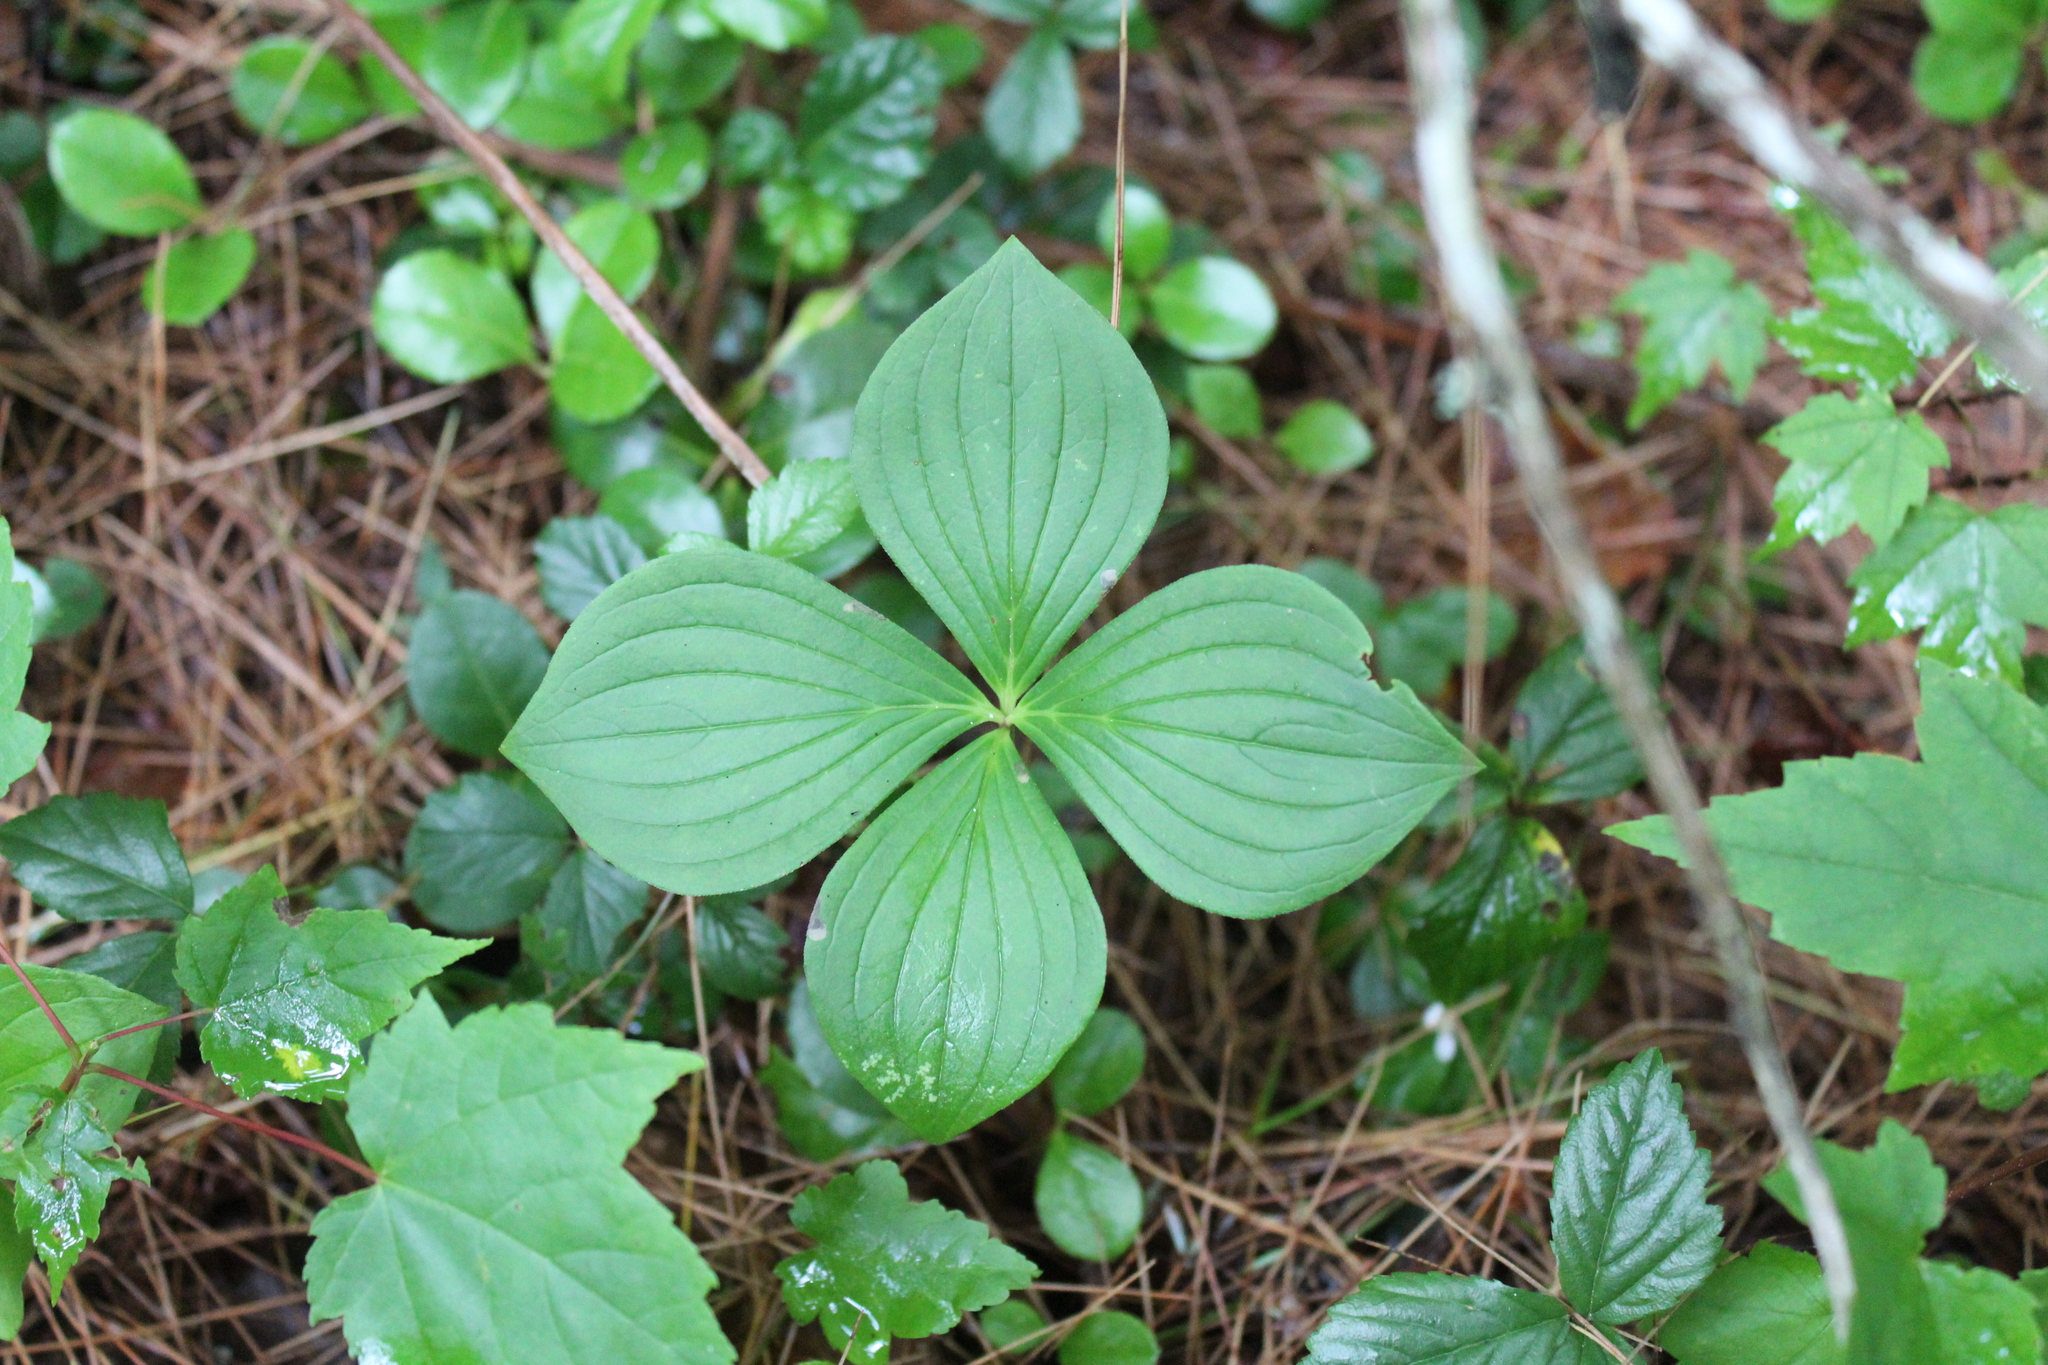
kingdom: Plantae
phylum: Tracheophyta
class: Magnoliopsida
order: Cornales
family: Cornaceae
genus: Cornus
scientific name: Cornus canadensis
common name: Creeping dogwood
